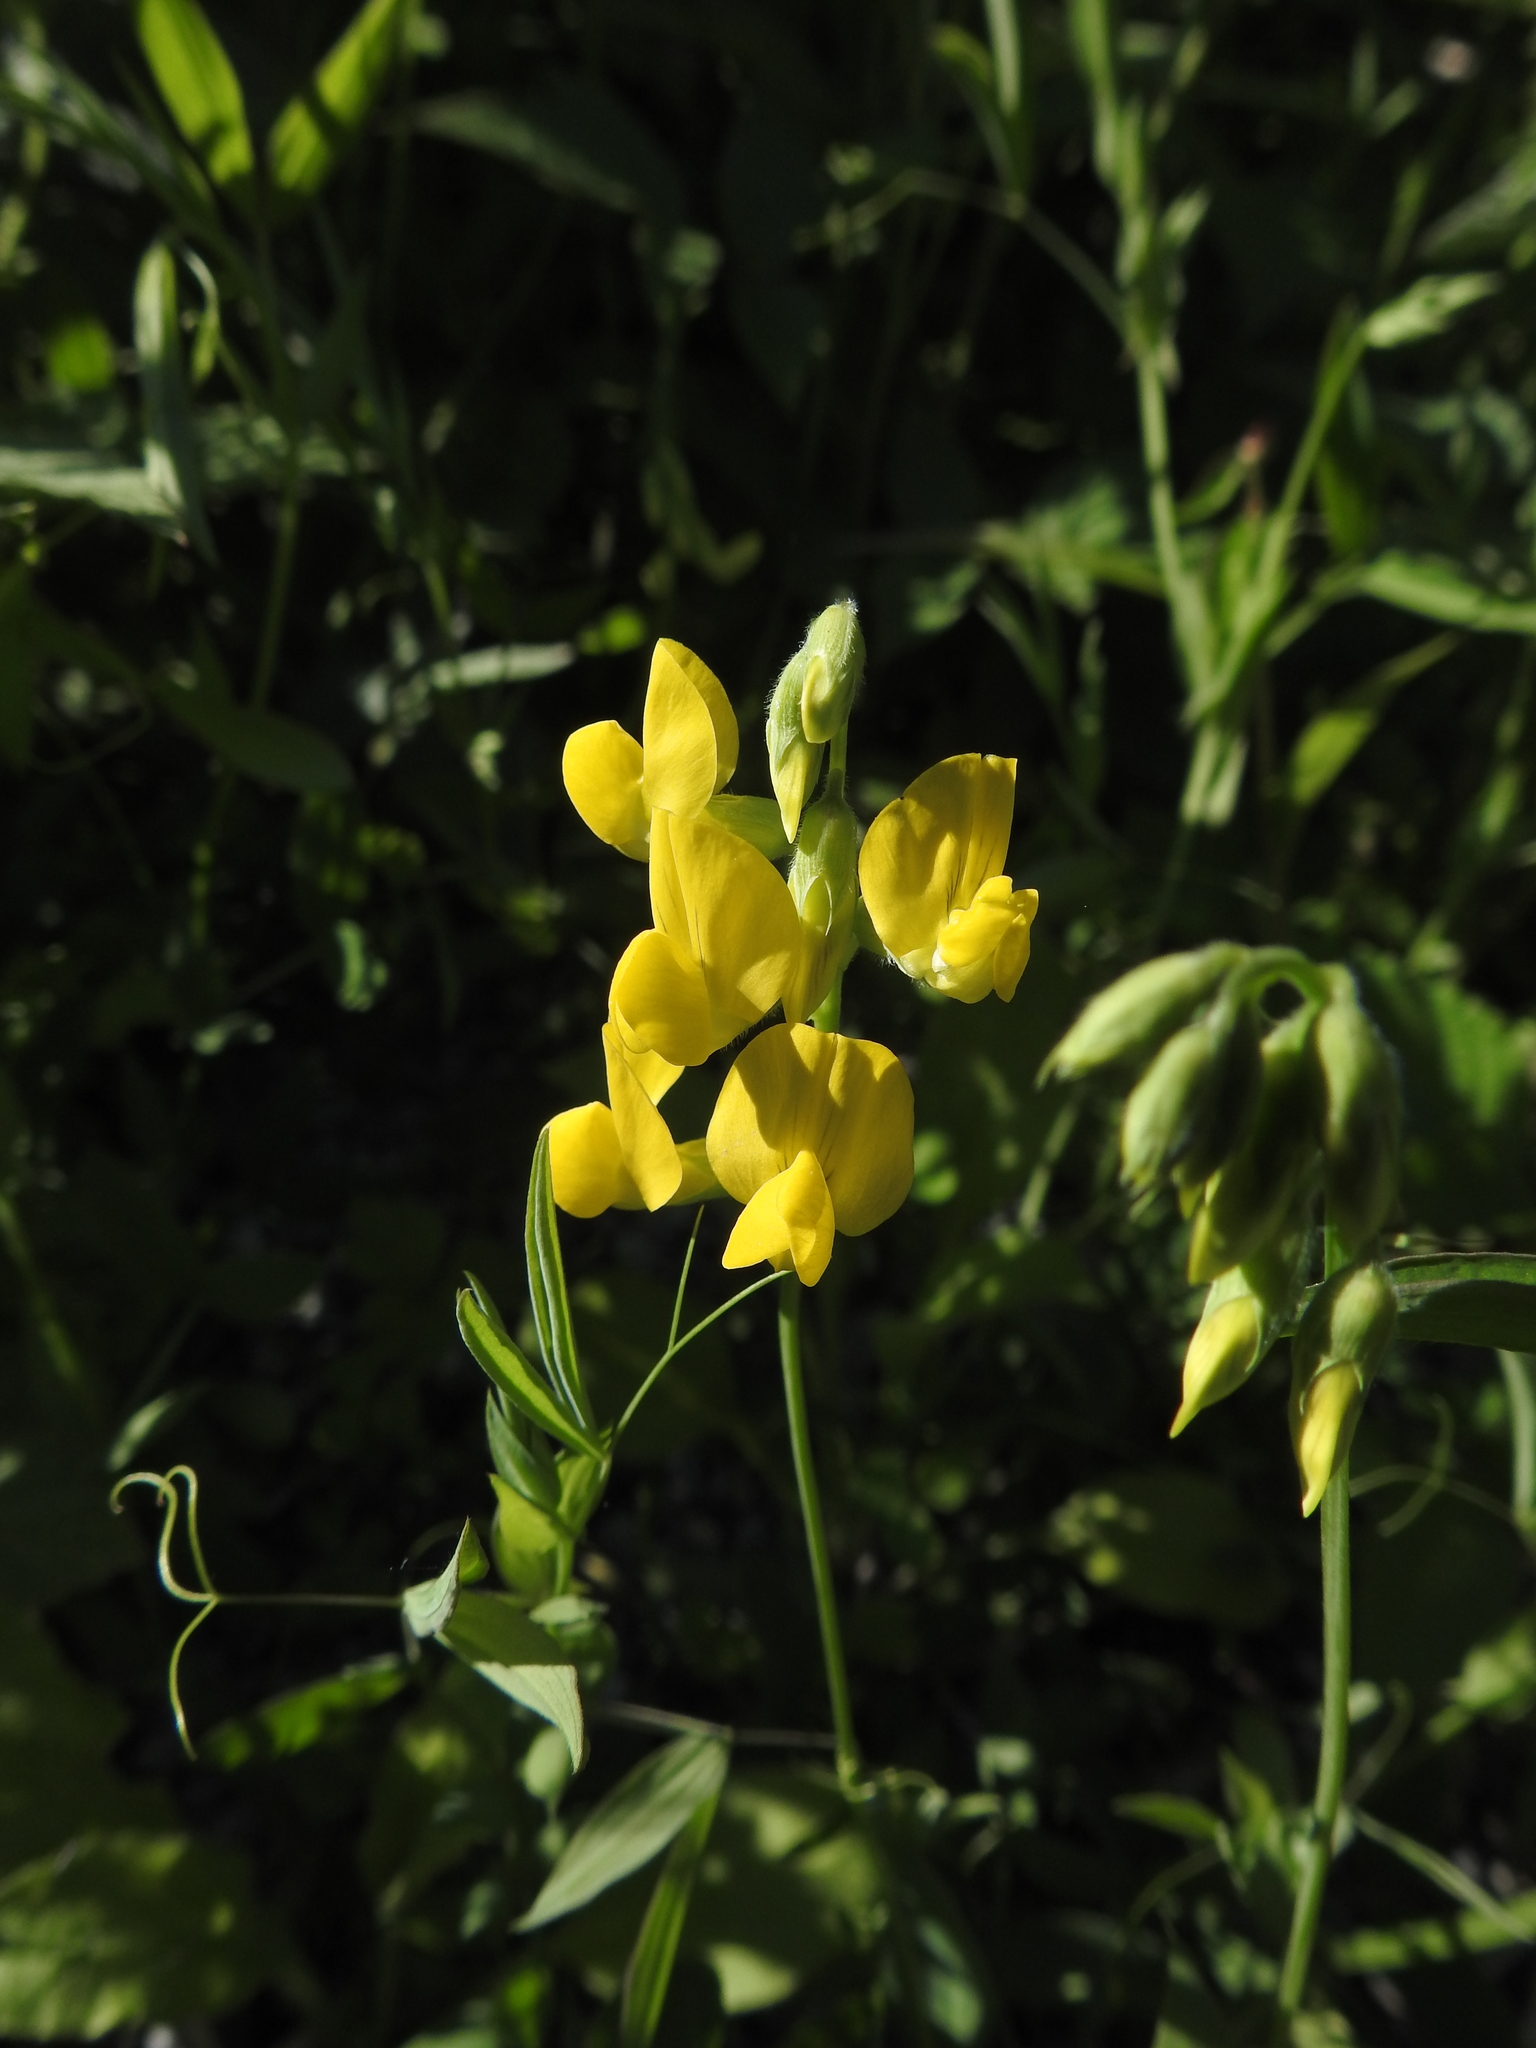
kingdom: Plantae
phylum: Tracheophyta
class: Magnoliopsida
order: Fabales
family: Fabaceae
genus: Lathyrus
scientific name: Lathyrus pratensis
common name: Meadow vetchling
